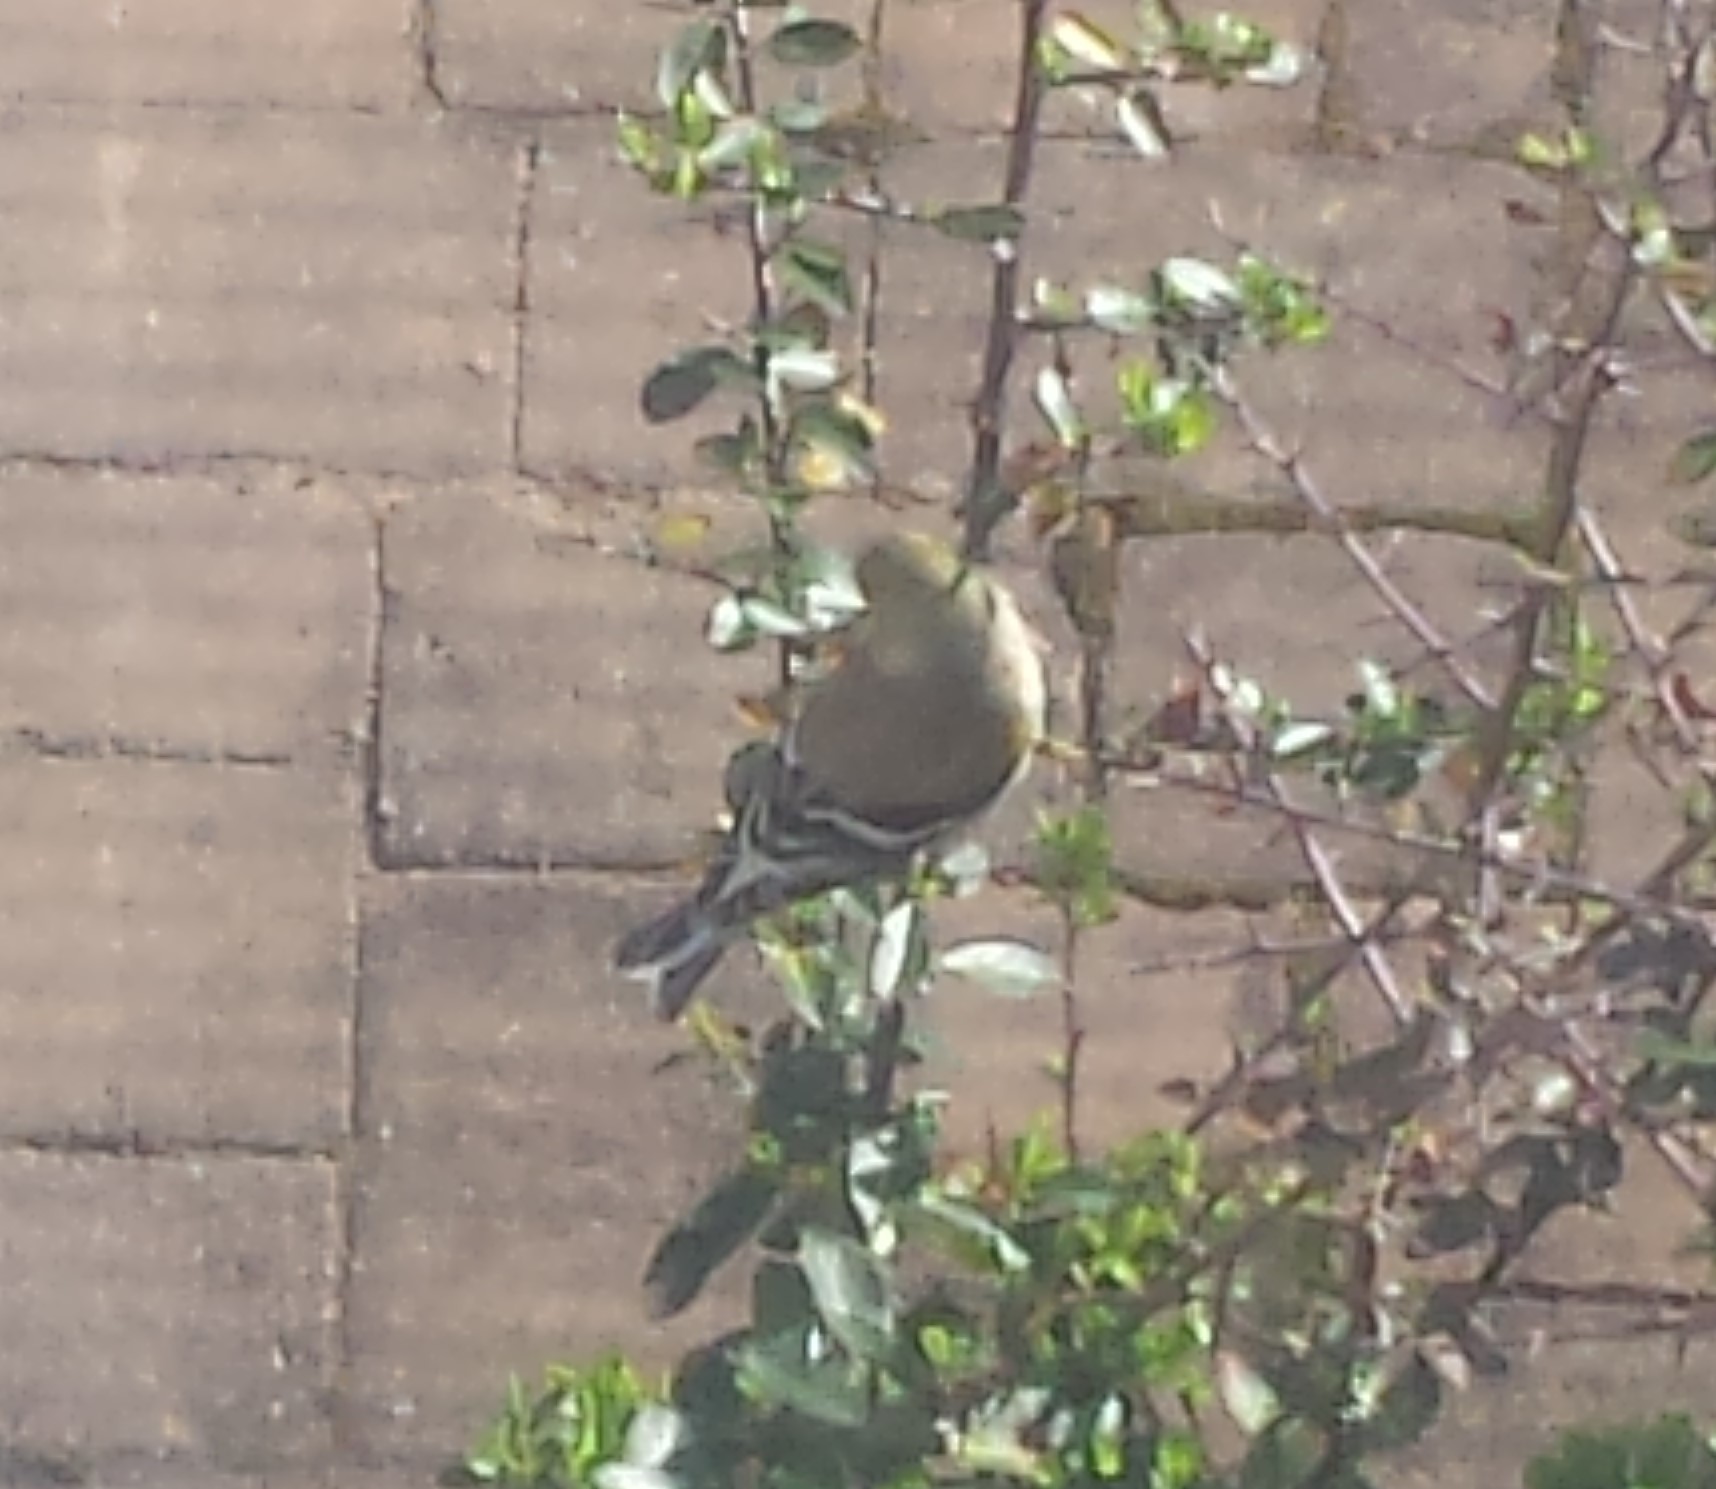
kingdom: Animalia
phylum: Chordata
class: Aves
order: Passeriformes
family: Fringillidae
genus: Spinus
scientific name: Spinus tristis
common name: American goldfinch
